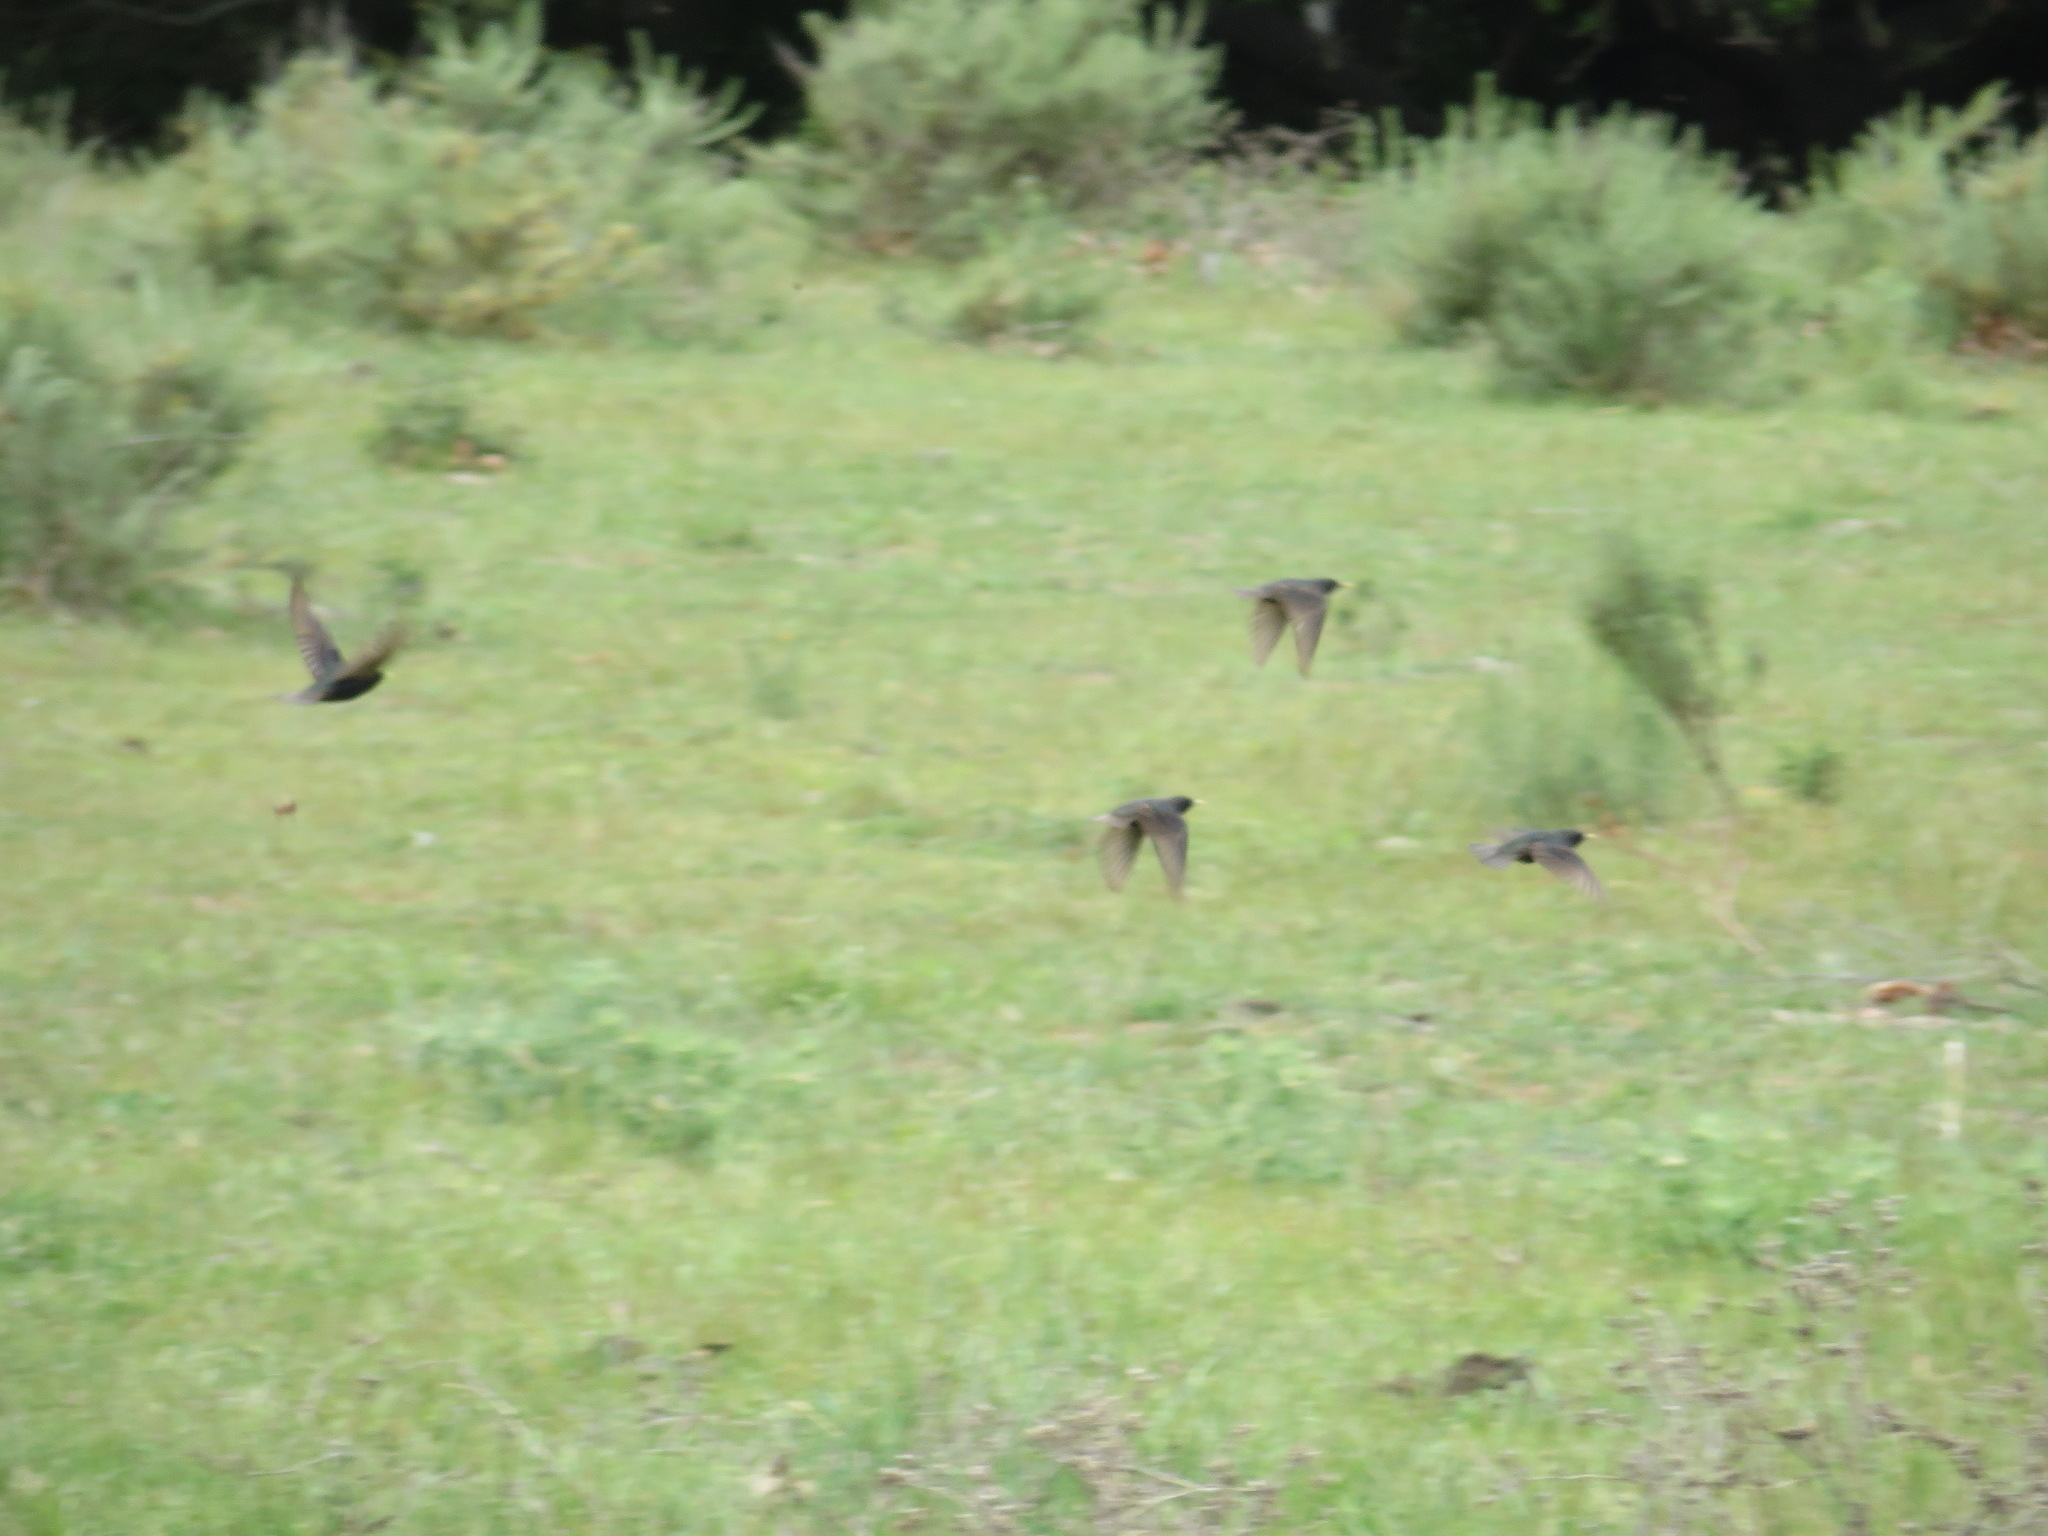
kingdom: Animalia
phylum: Chordata
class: Aves
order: Passeriformes
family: Sturnidae
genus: Sturnus
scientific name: Sturnus vulgaris
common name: Common starling
